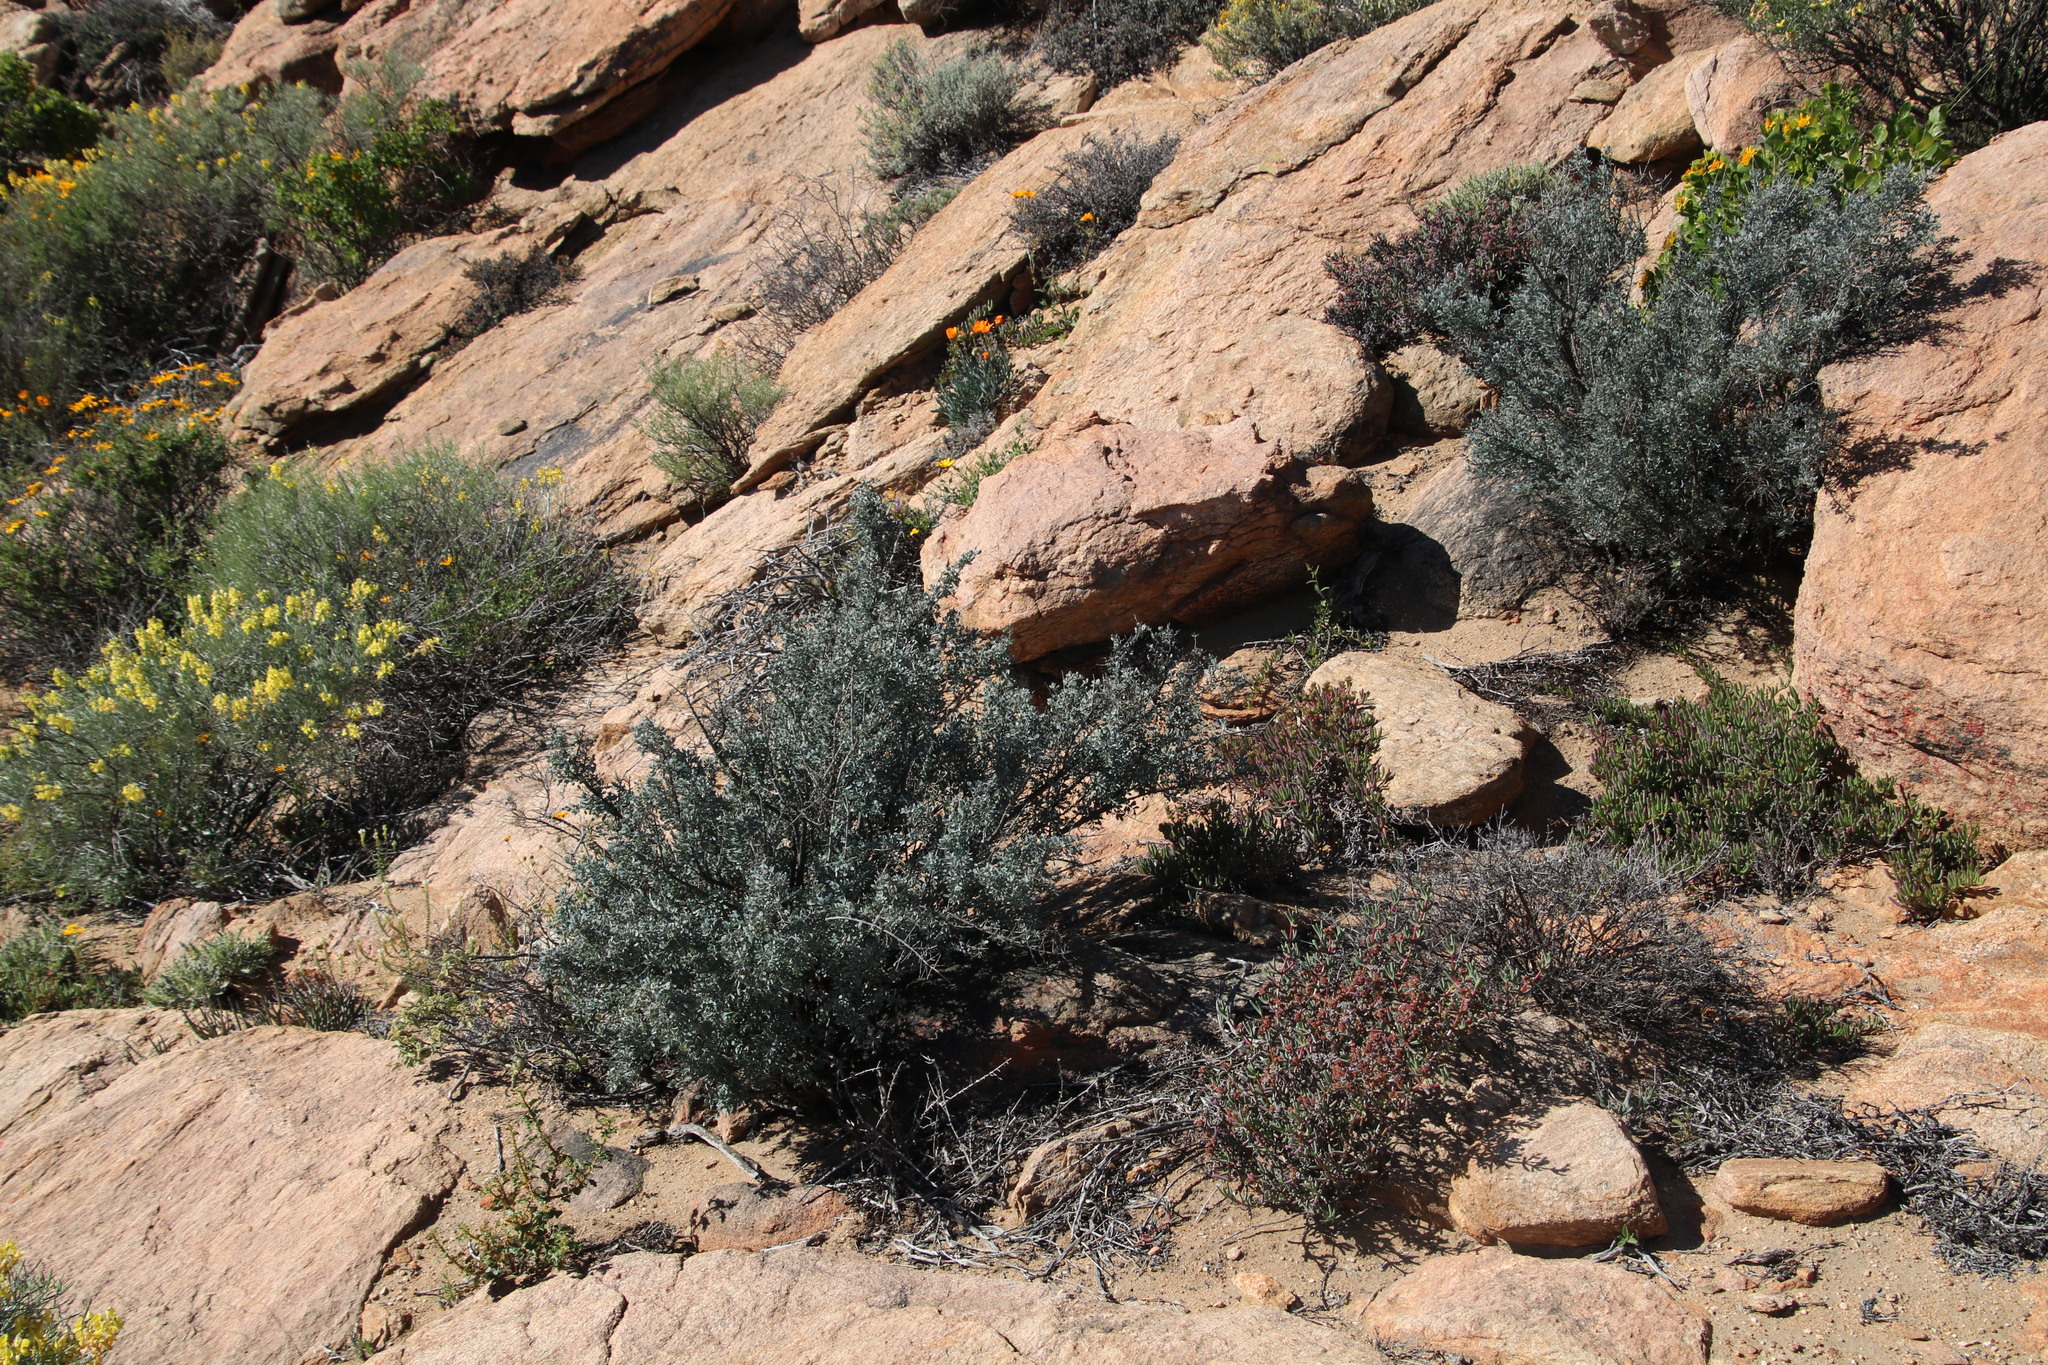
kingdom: Plantae
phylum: Tracheophyta
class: Magnoliopsida
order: Ranunculales
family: Menispermaceae
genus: Antizoma
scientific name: Antizoma miersiana
